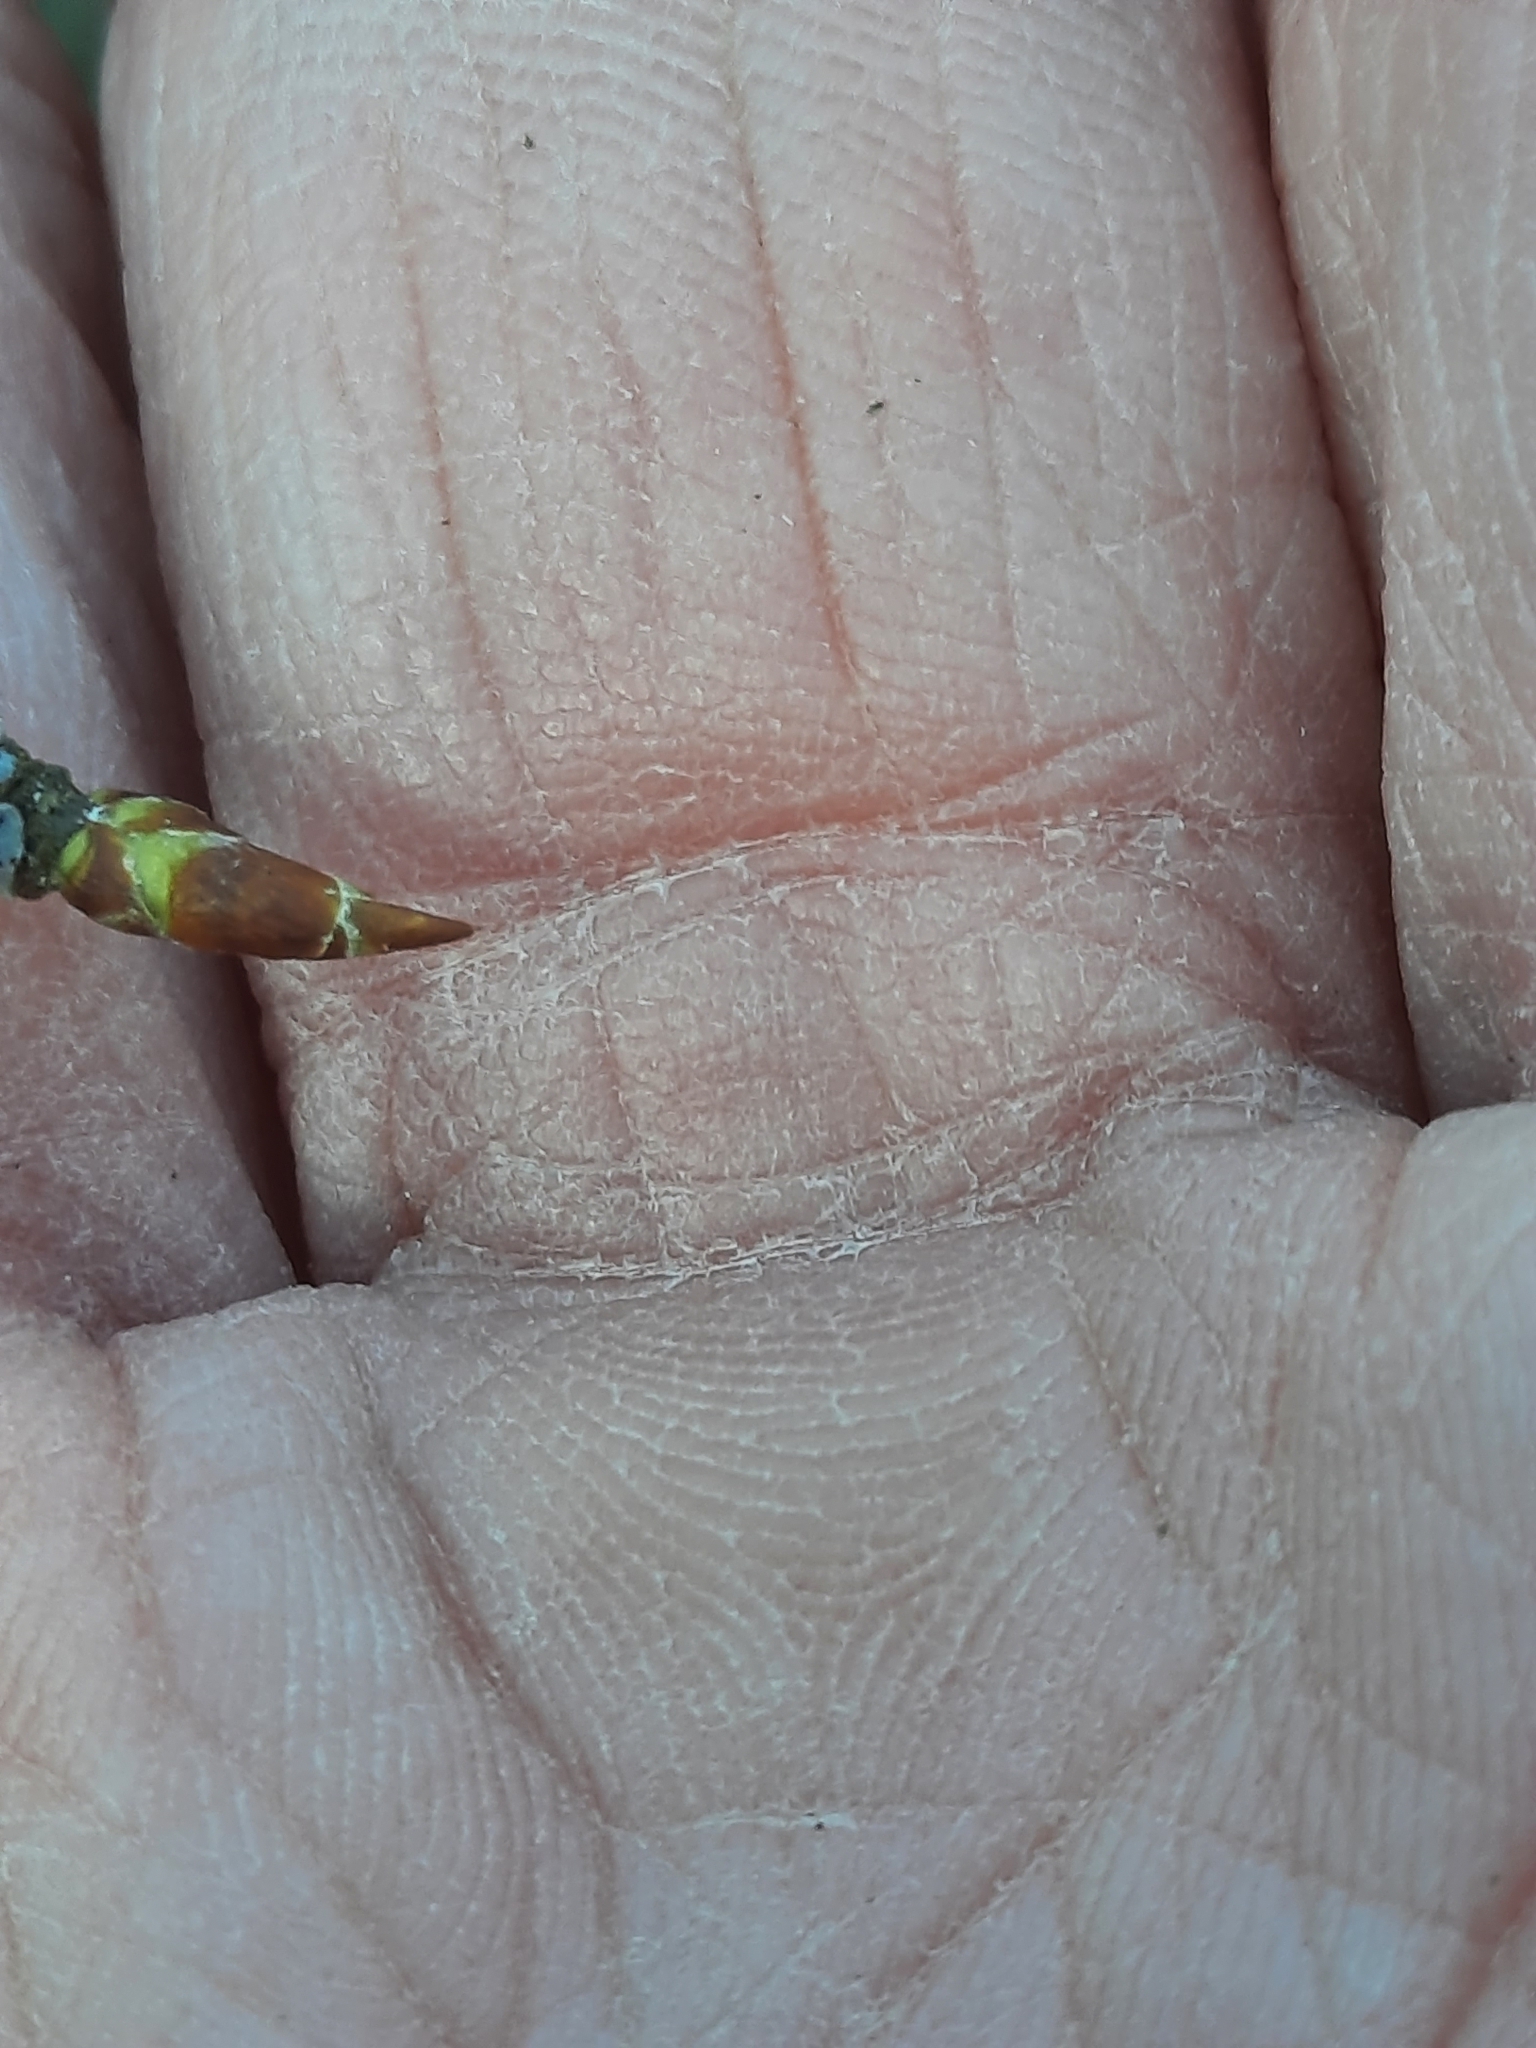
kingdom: Plantae
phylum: Tracheophyta
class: Magnoliopsida
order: Fagales
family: Betulaceae
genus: Betula
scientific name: Betula lenta
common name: Black birch
